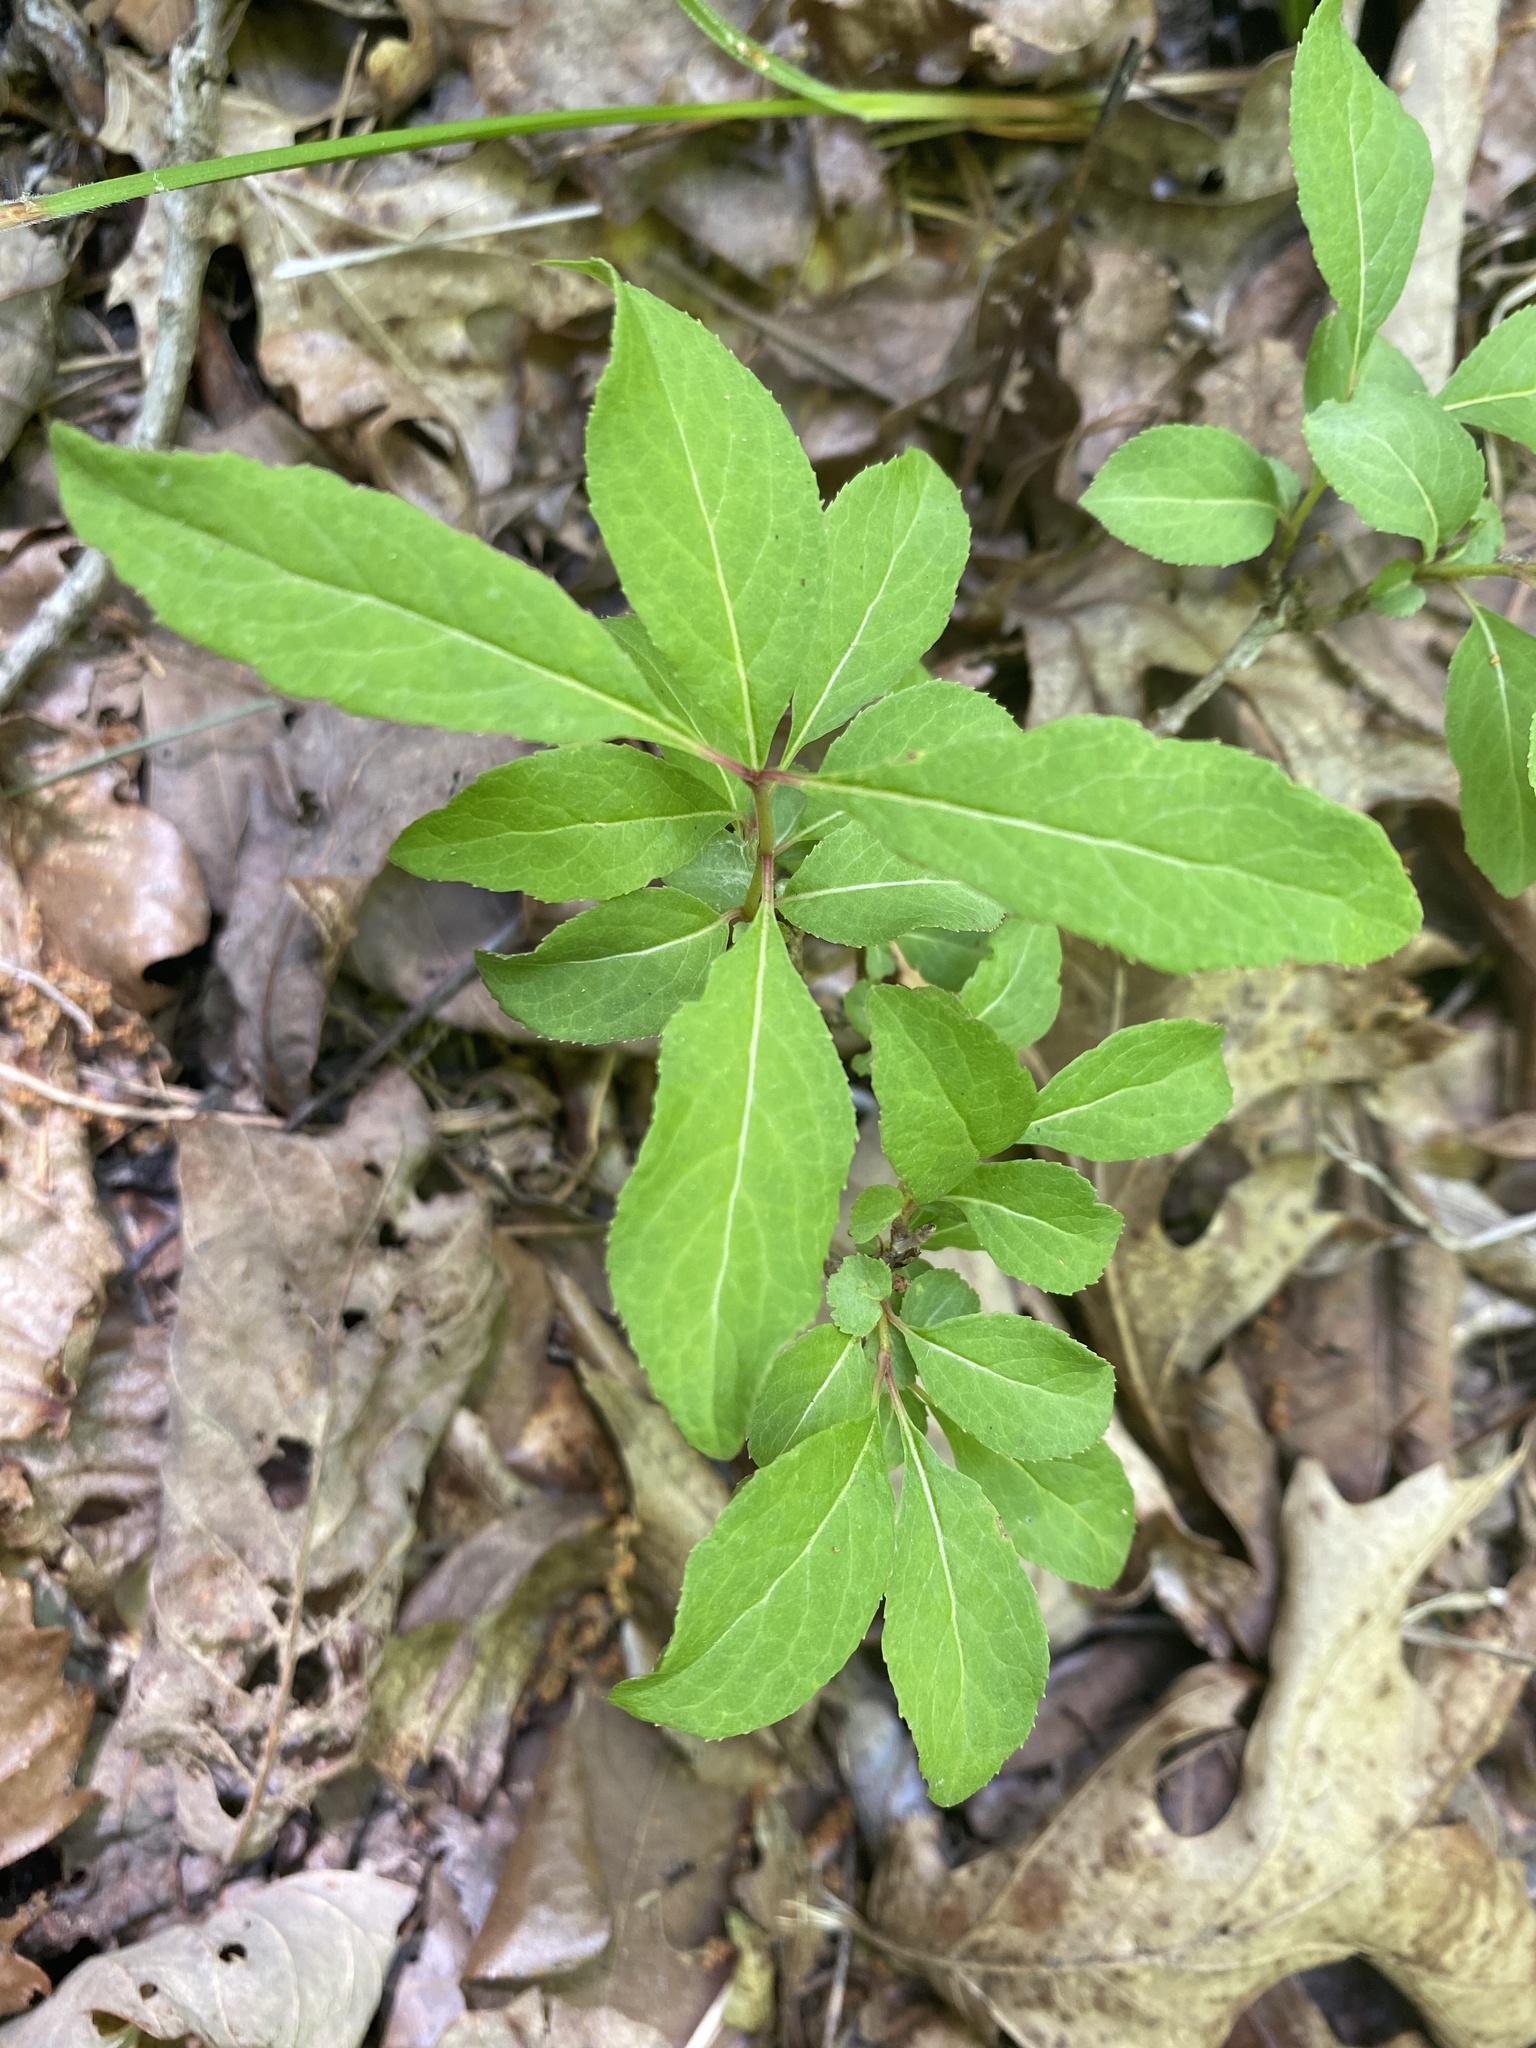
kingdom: Plantae
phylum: Tracheophyta
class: Magnoliopsida
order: Dipsacales
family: Viburnaceae
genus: Viburnum
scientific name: Viburnum prunifolium
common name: Black haw
